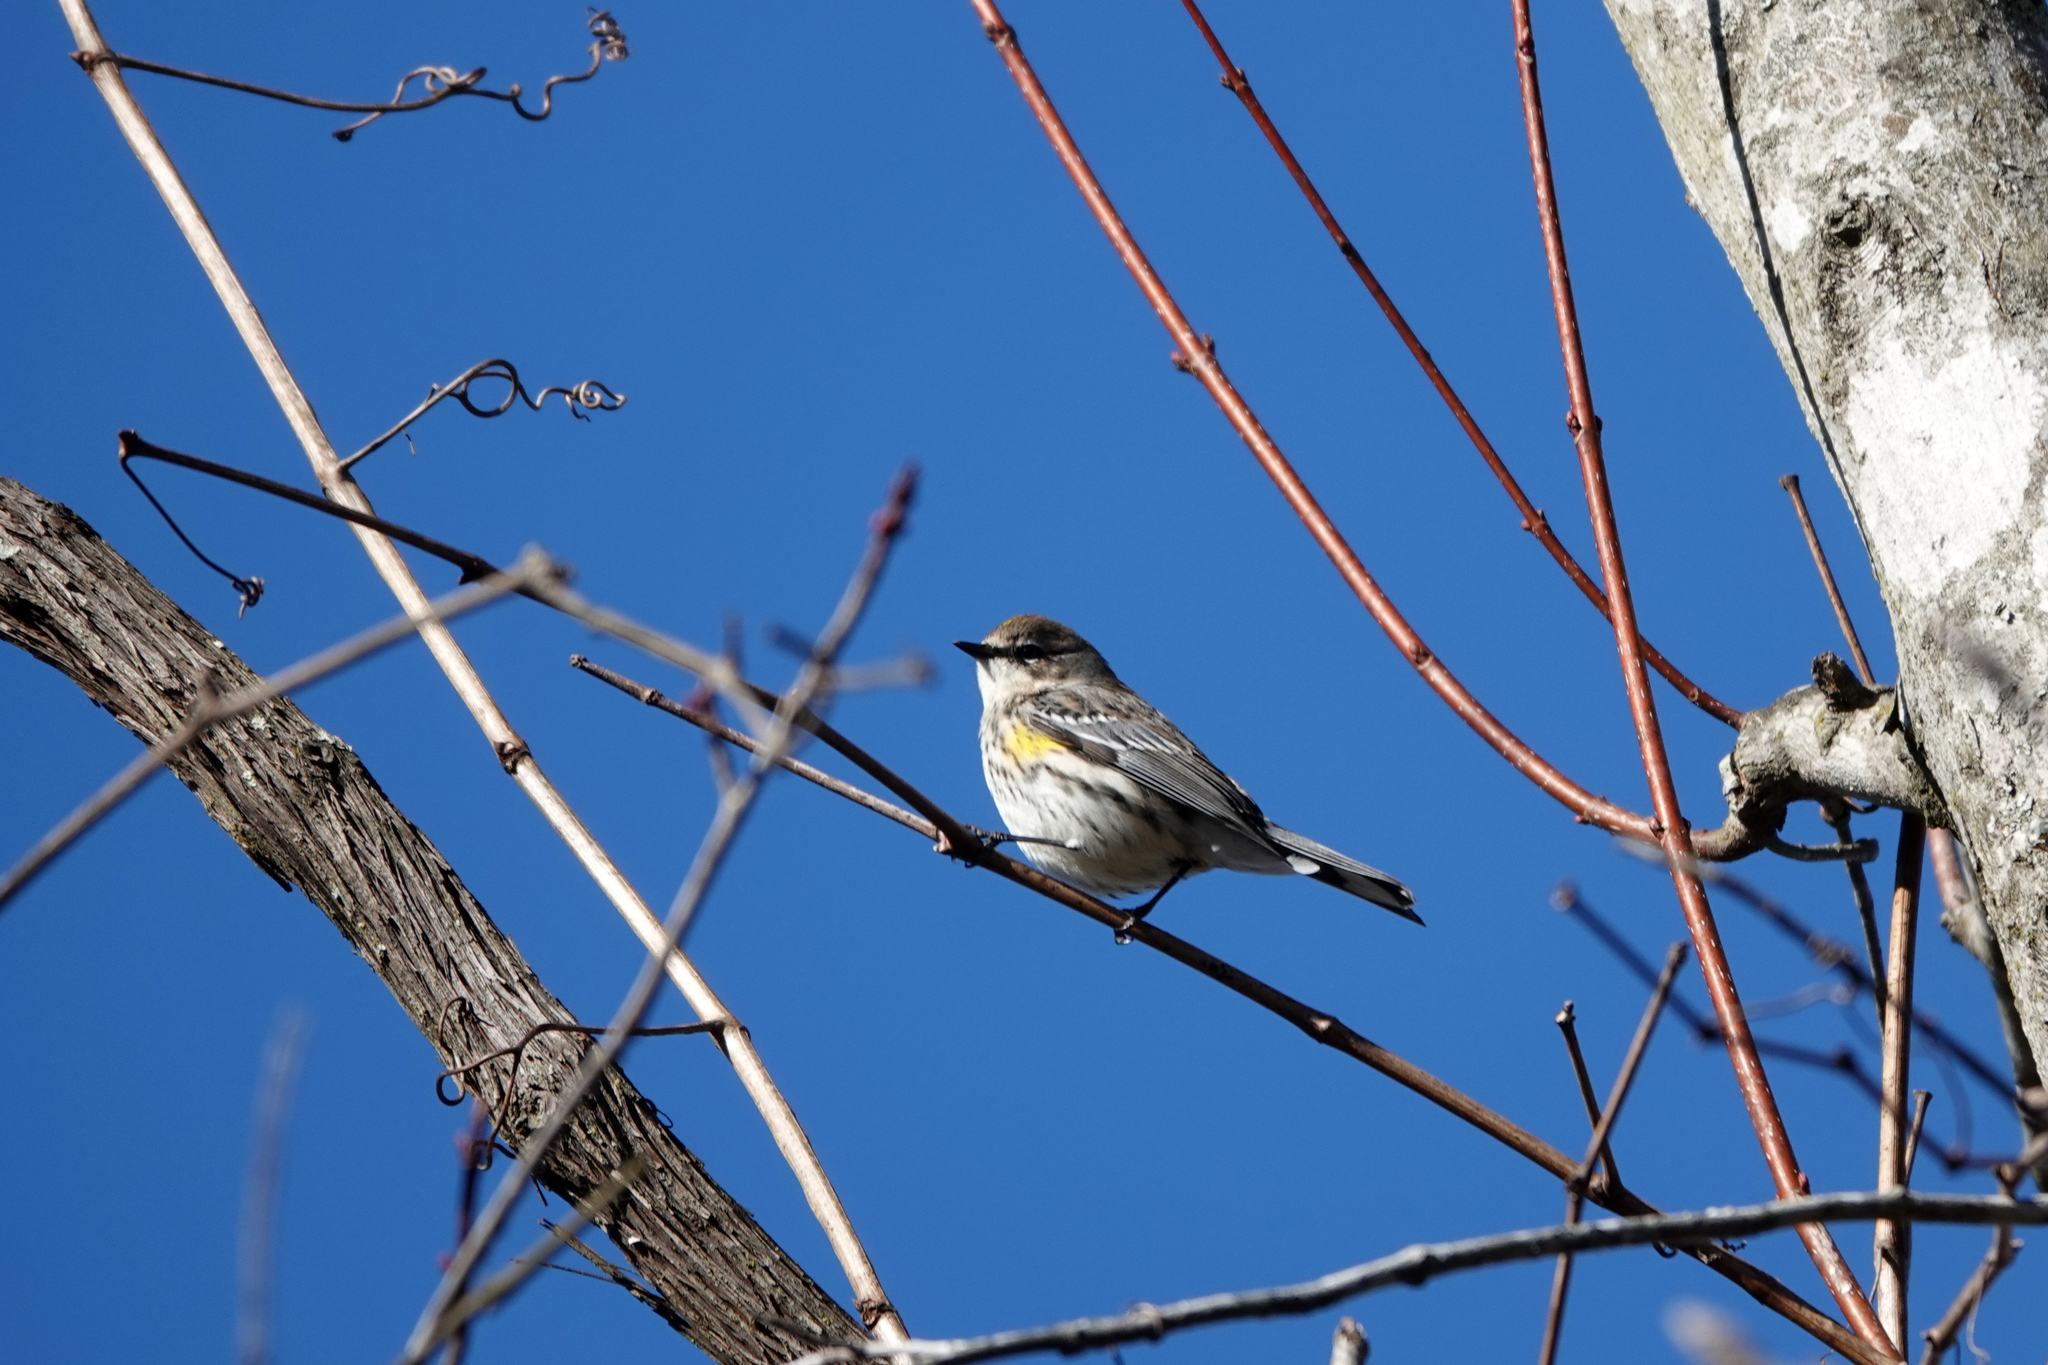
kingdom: Animalia
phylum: Chordata
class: Aves
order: Passeriformes
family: Parulidae
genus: Setophaga
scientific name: Setophaga coronata
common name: Myrtle warbler
